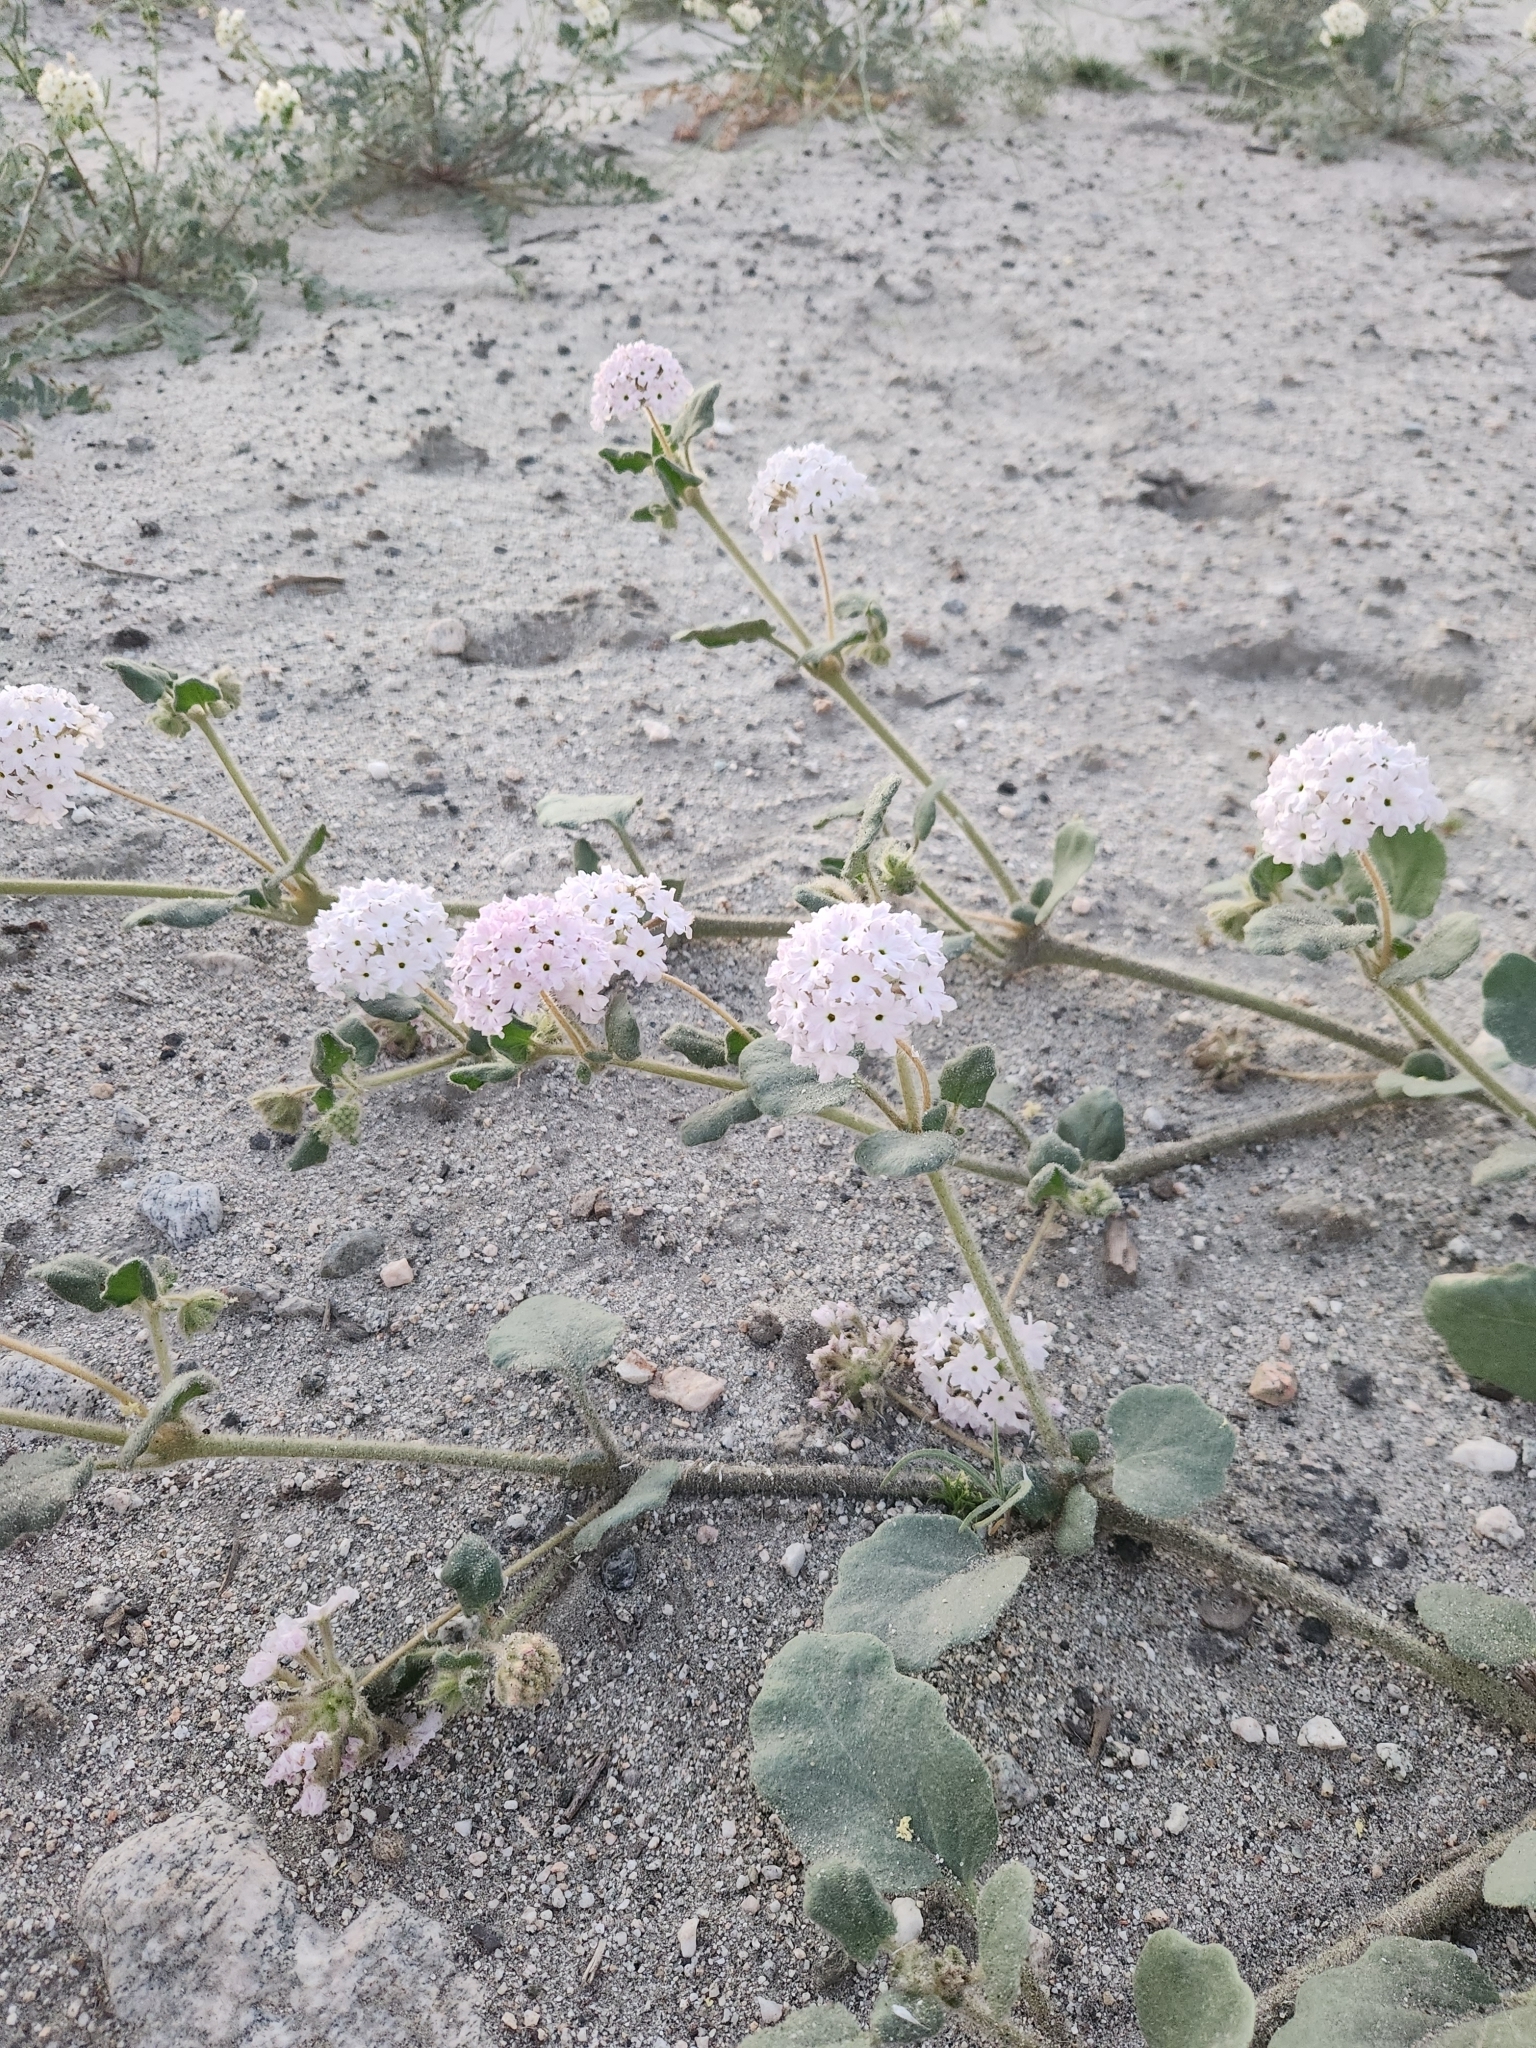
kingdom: Plantae
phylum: Tracheophyta
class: Magnoliopsida
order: Caryophyllales
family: Nyctaginaceae
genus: Abronia
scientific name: Abronia villosa
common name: Desert sand-verbena
